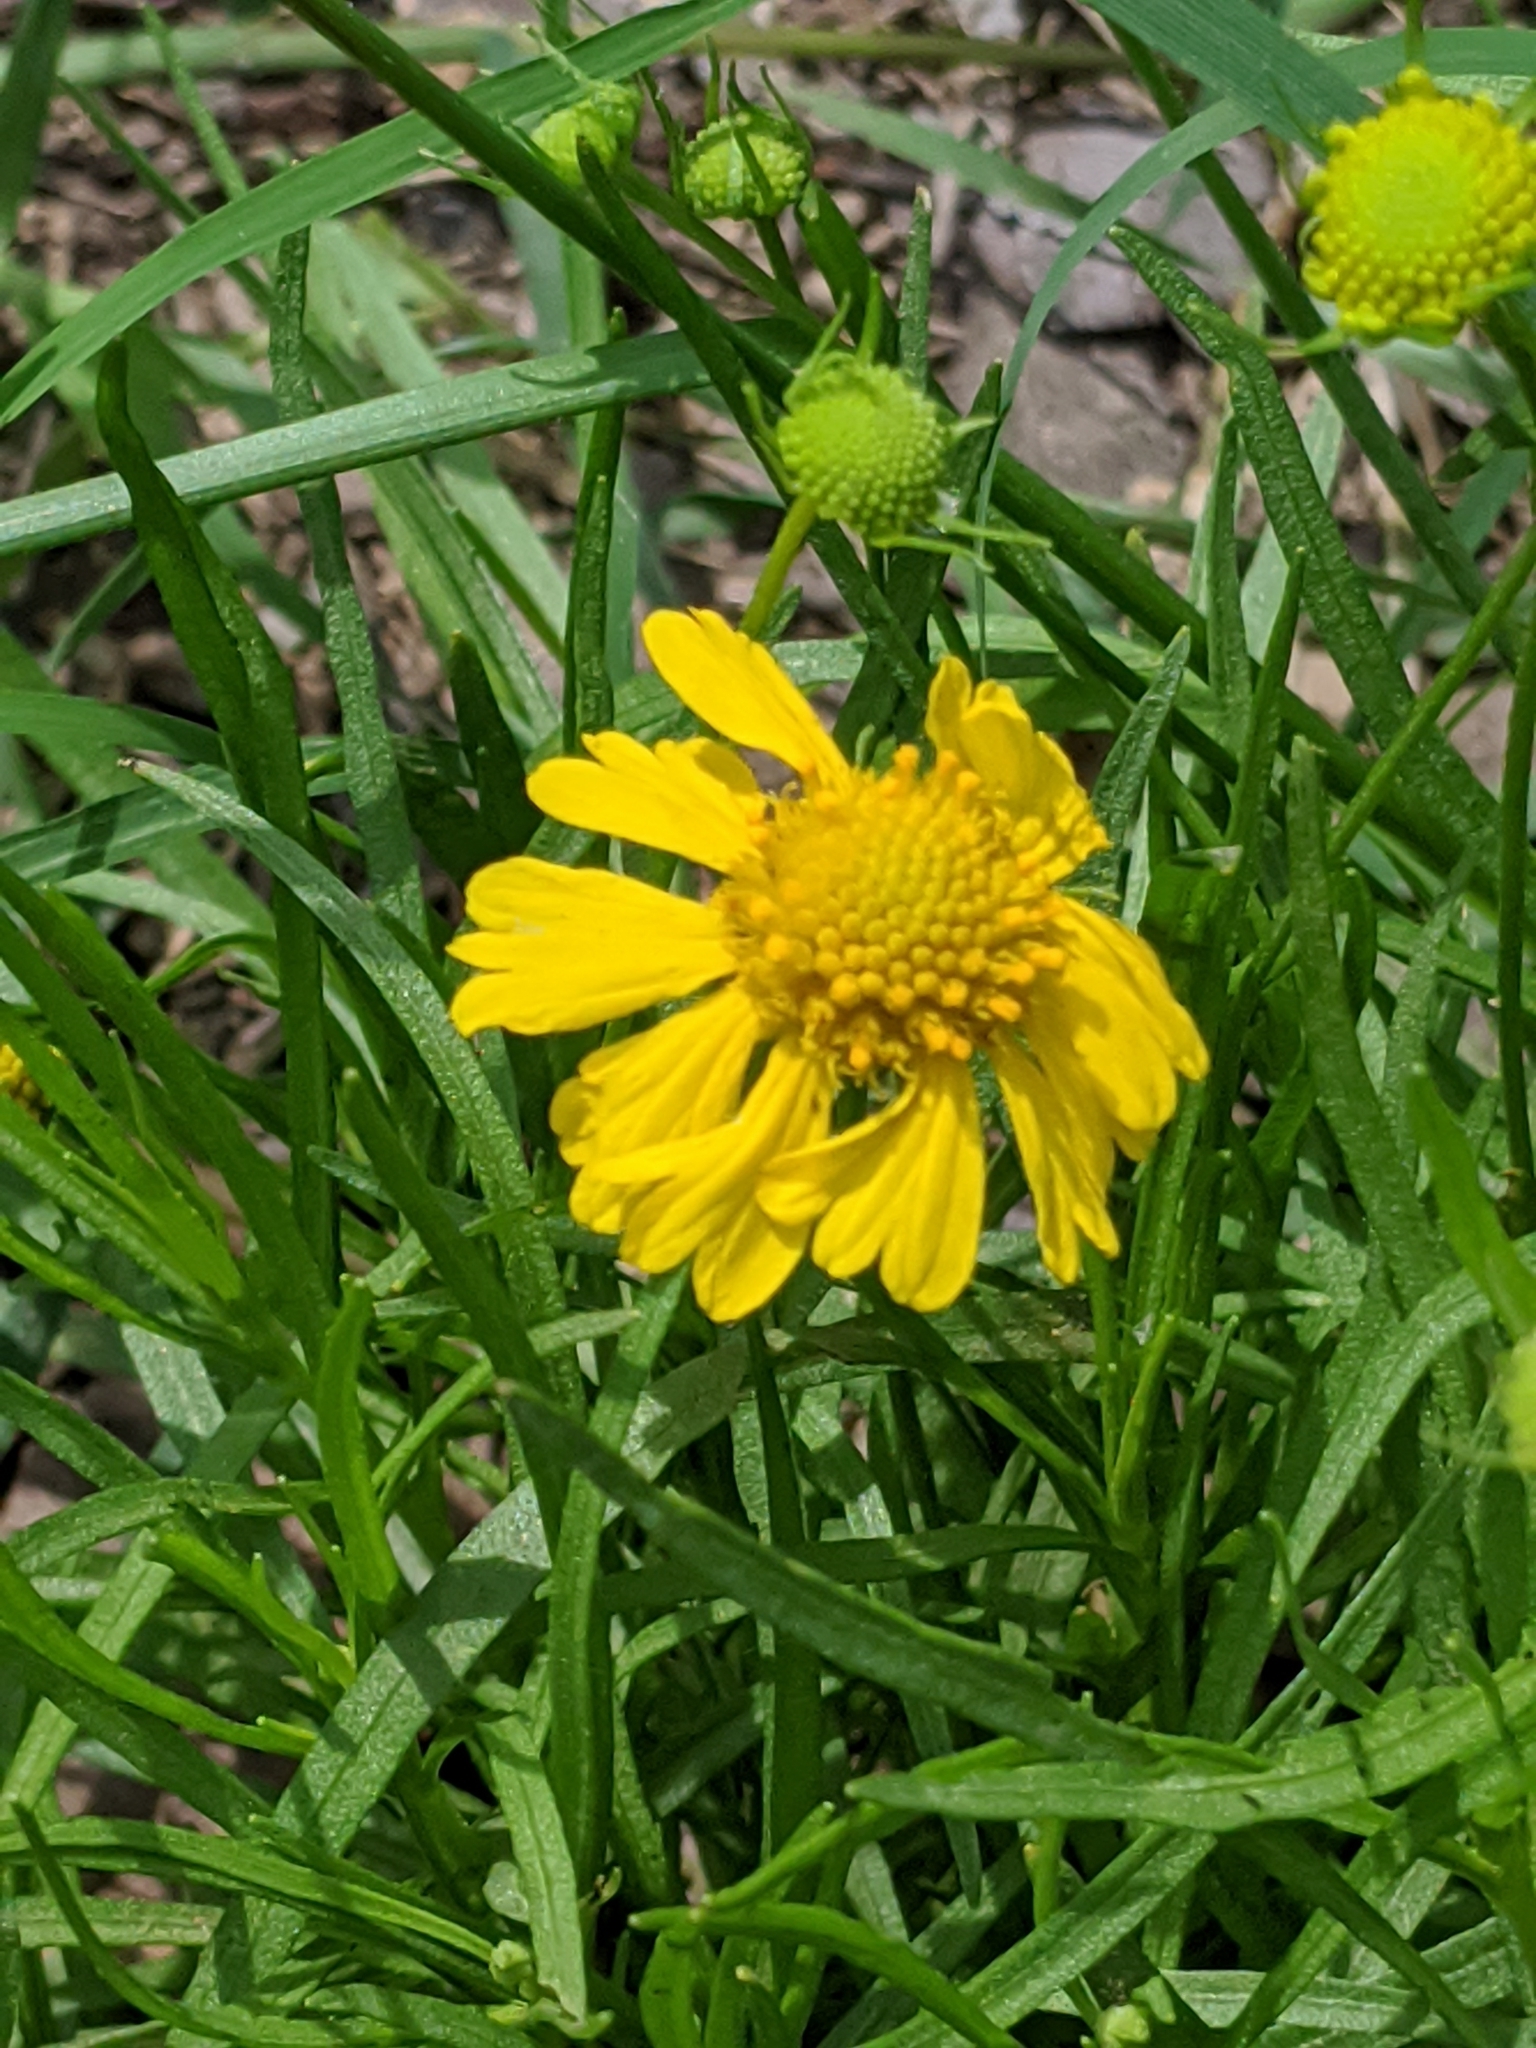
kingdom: Plantae
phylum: Tracheophyta
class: Magnoliopsida
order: Asterales
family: Asteraceae
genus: Helenium
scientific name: Helenium amarum
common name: Bitter sneezeweed
